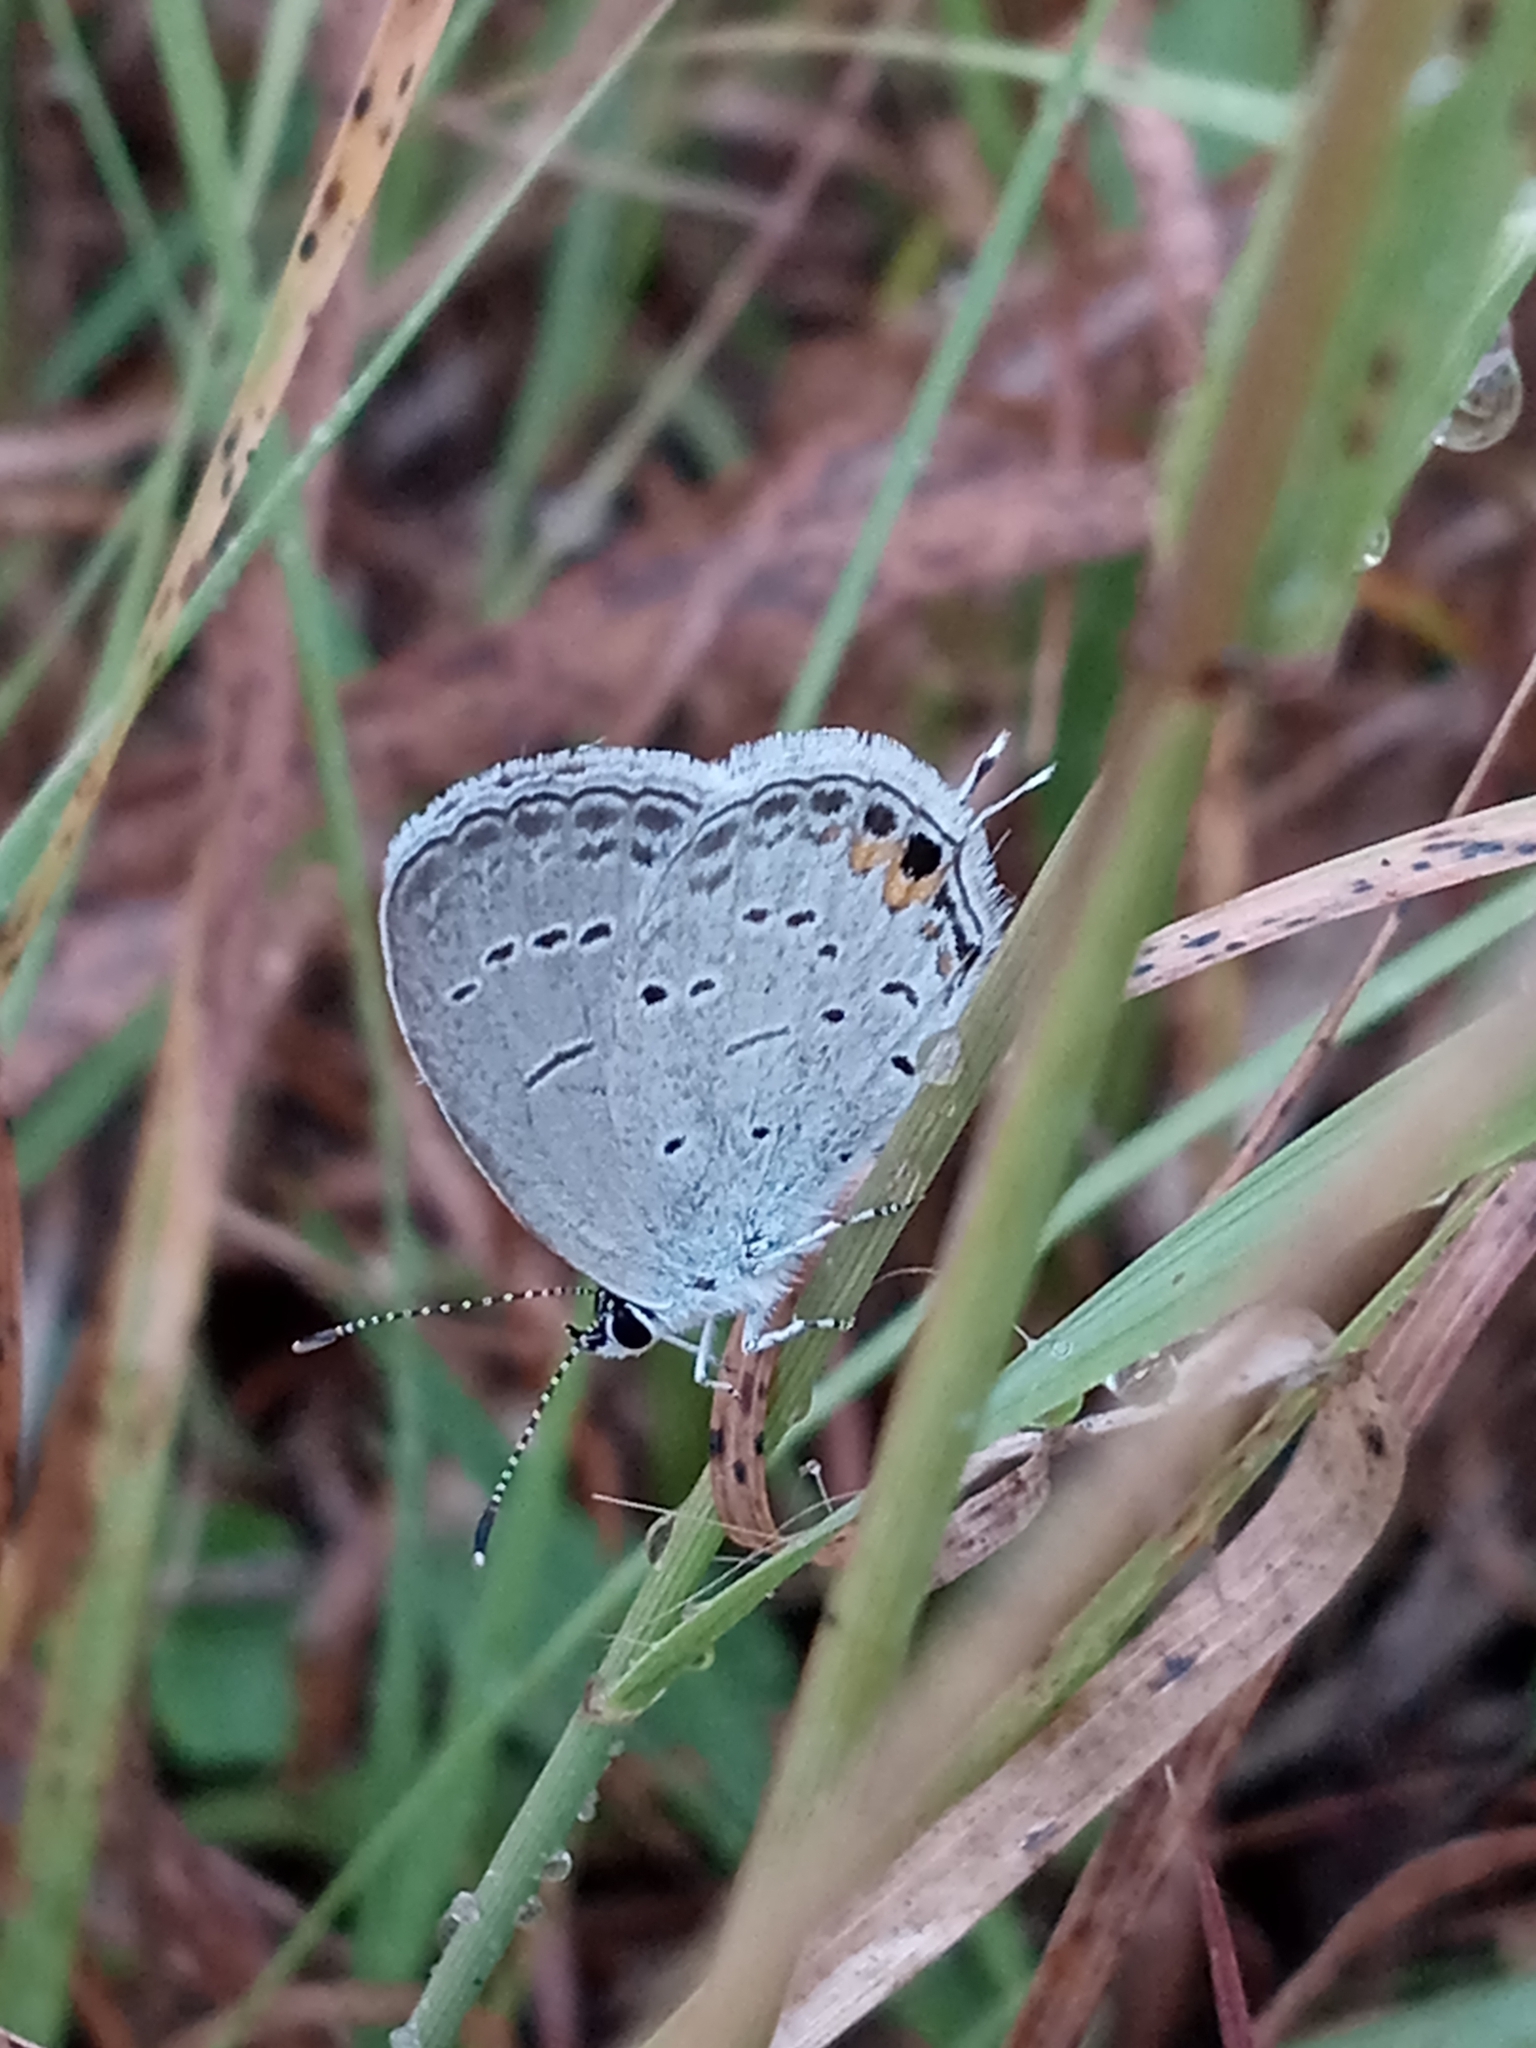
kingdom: Animalia
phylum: Arthropoda
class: Insecta
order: Lepidoptera
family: Lycaenidae
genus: Elkalyce
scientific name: Elkalyce comyntas
